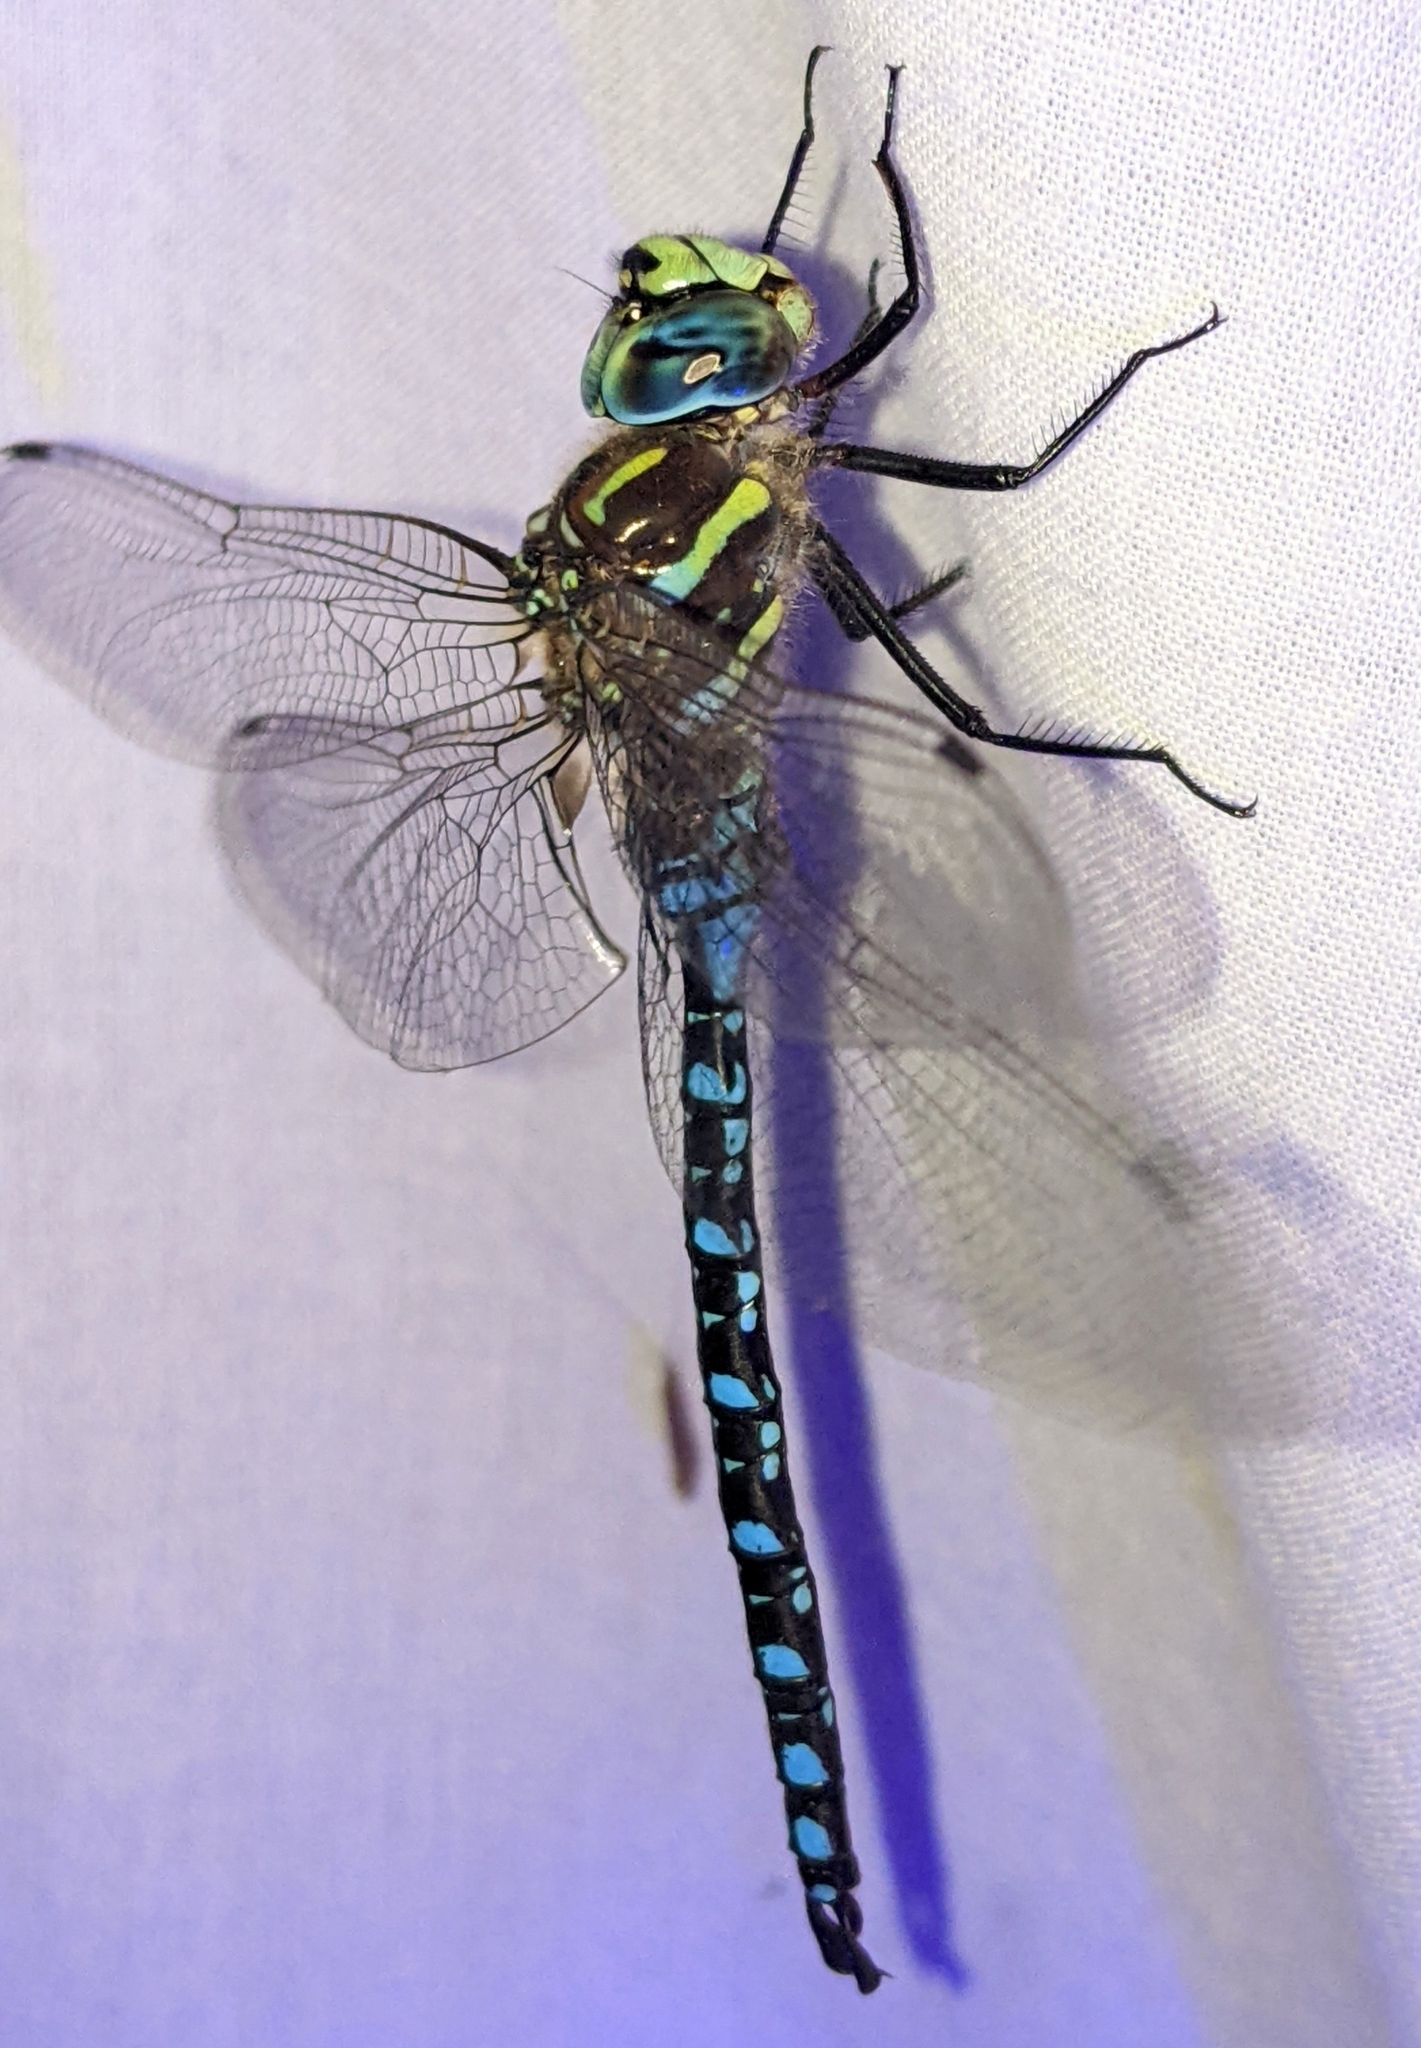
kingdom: Animalia
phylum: Arthropoda
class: Insecta
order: Odonata
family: Aeshnidae
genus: Aeshna
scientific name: Aeshna palmata
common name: Paddle-tailed darner
